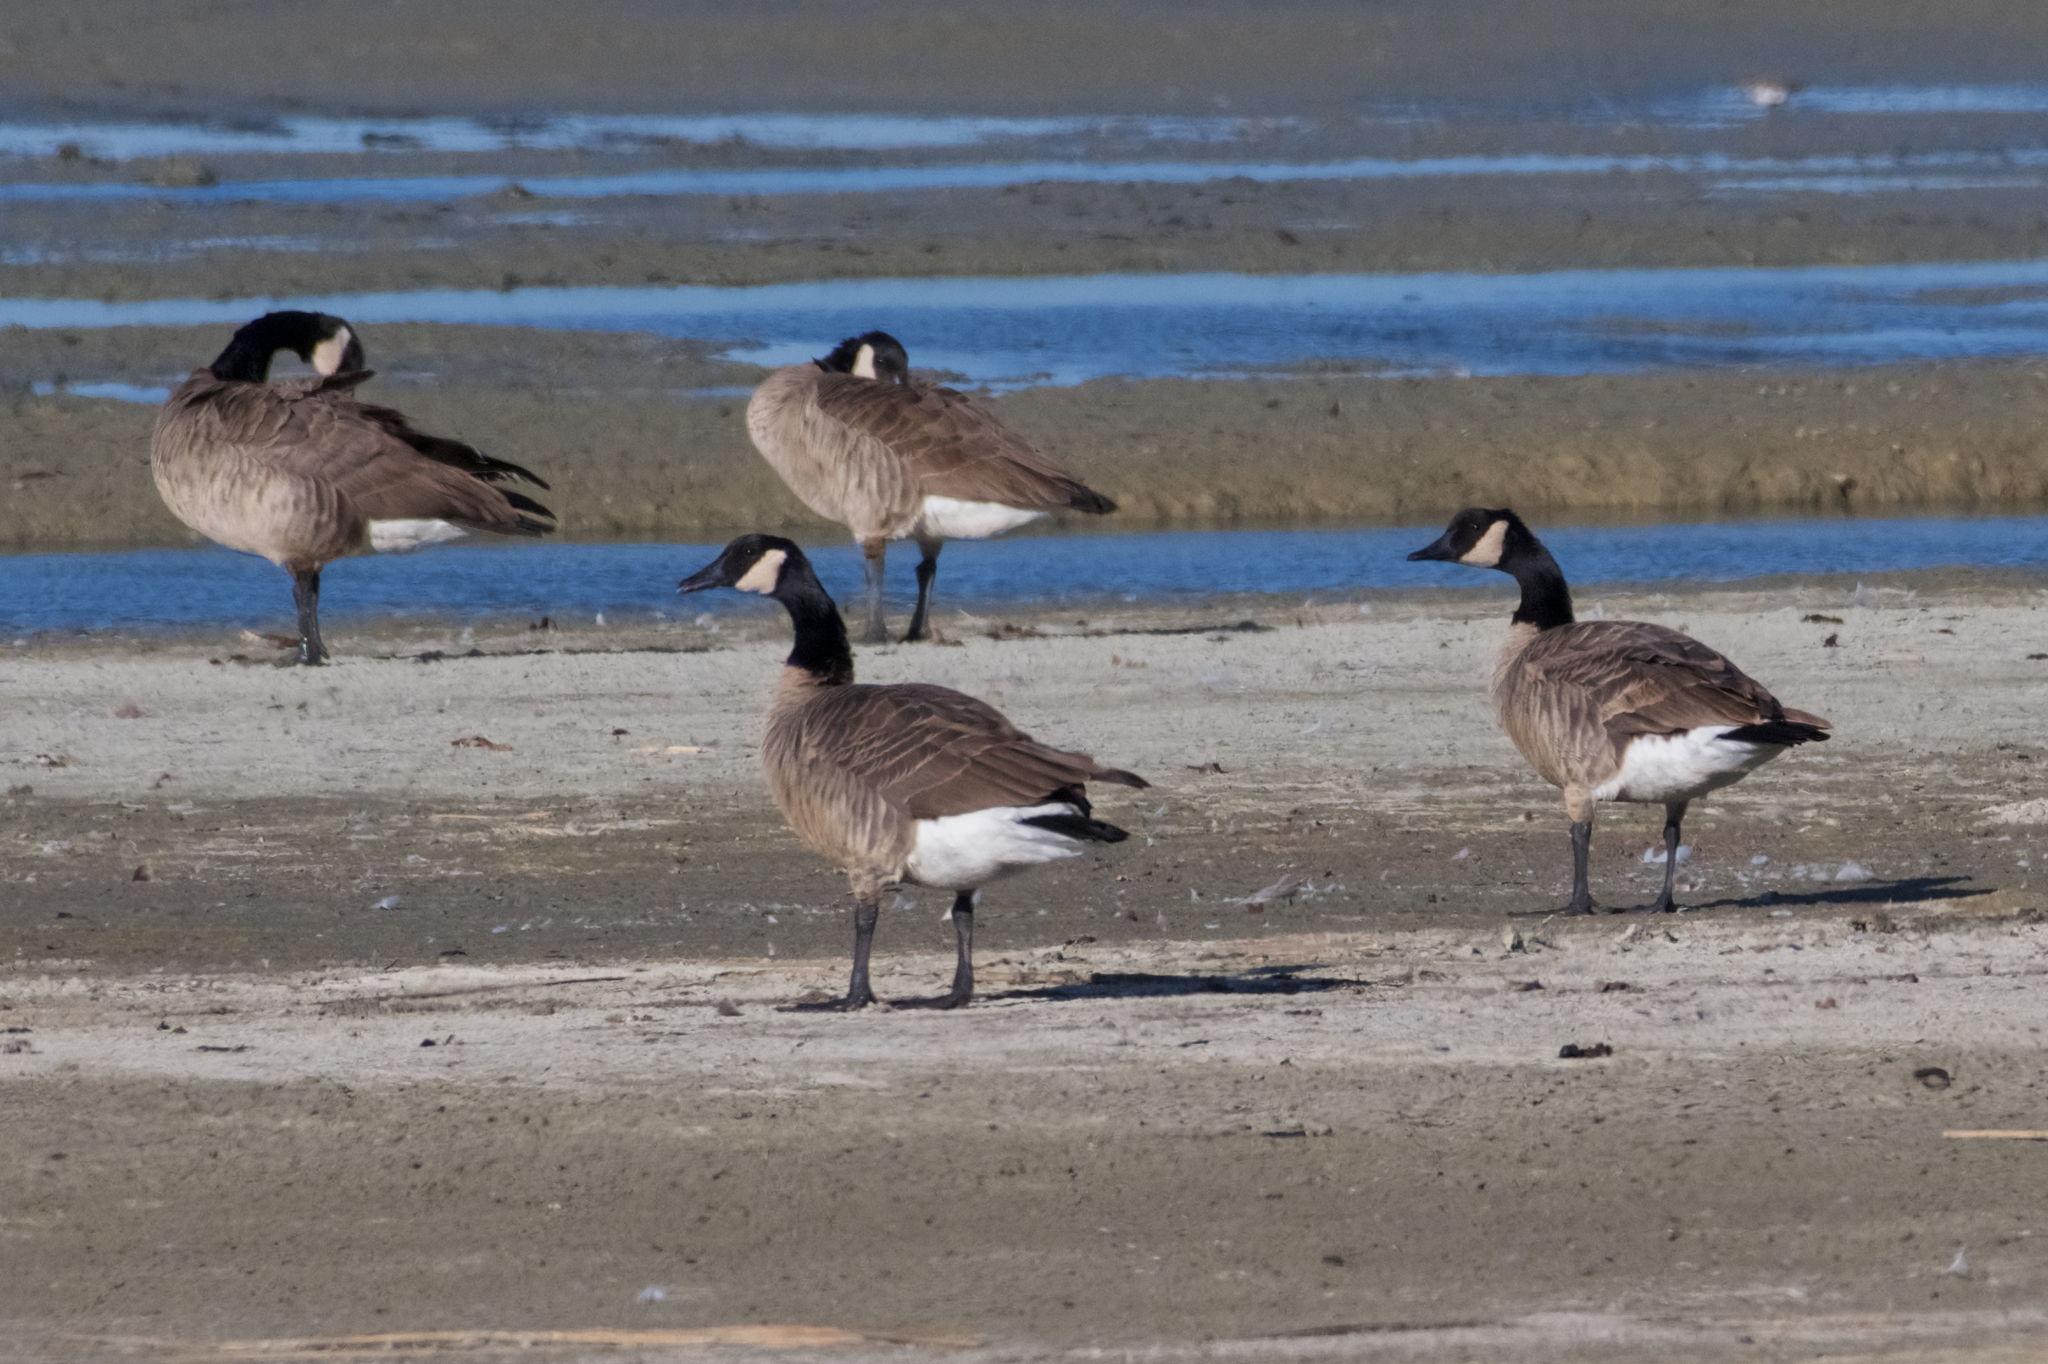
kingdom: Animalia
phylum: Chordata
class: Aves
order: Anseriformes
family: Anatidae
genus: Branta
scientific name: Branta canadensis
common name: Canada goose
